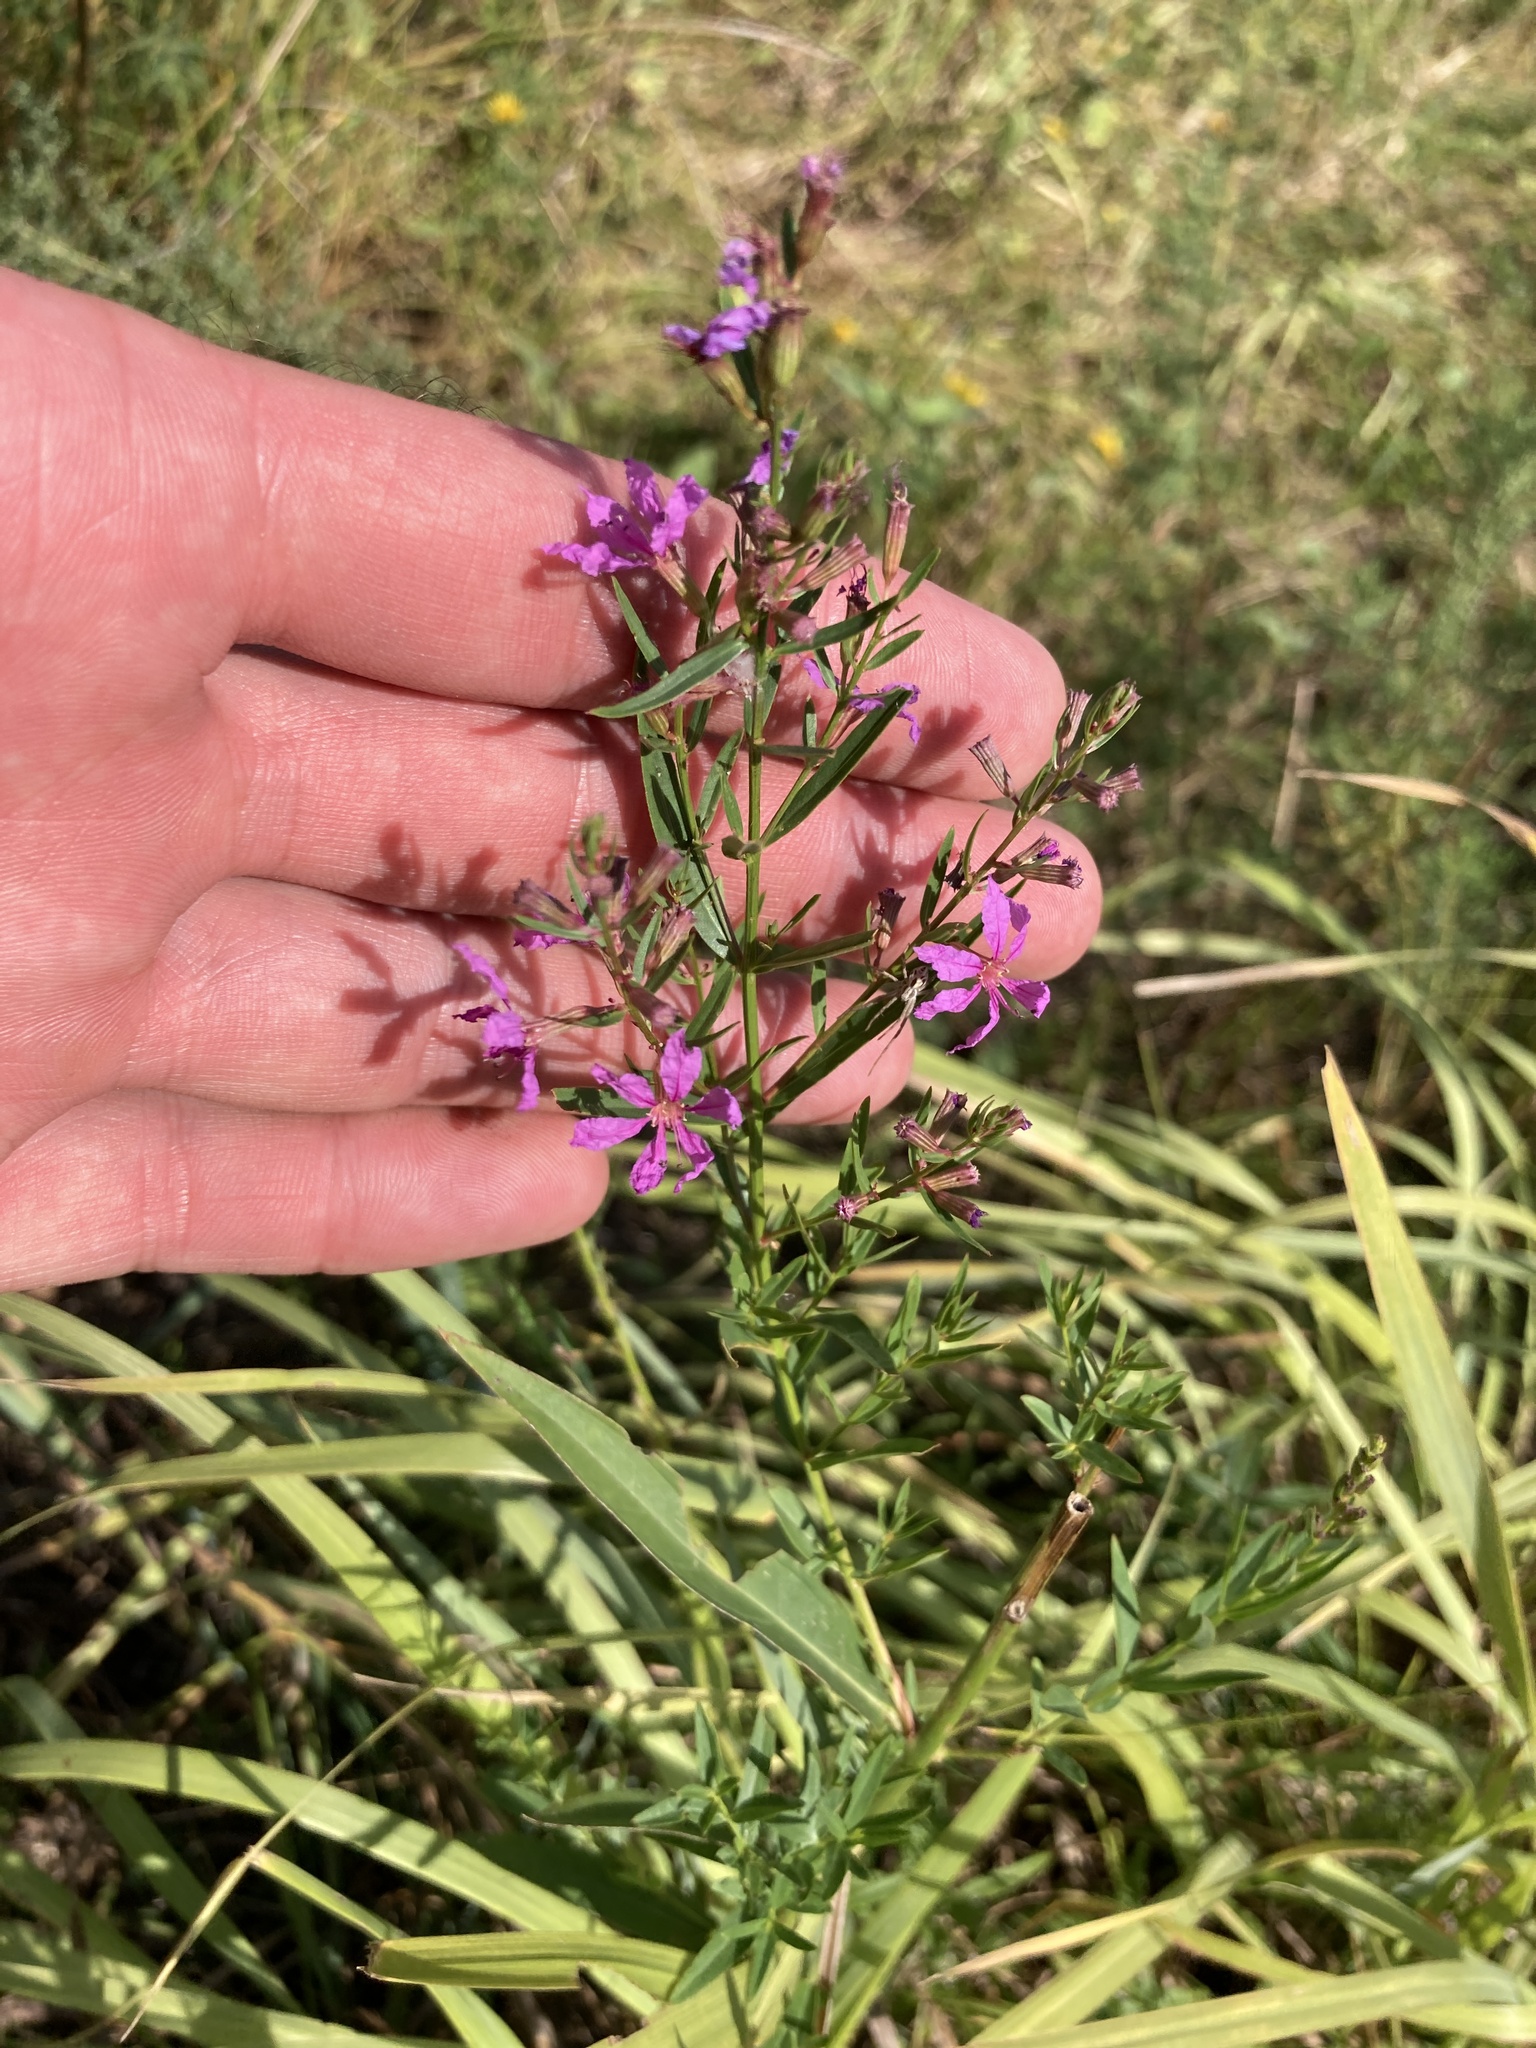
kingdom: Plantae
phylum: Tracheophyta
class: Magnoliopsida
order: Myrtales
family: Lythraceae
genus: Lythrum
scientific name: Lythrum virgatum
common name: European wand loosestrife
